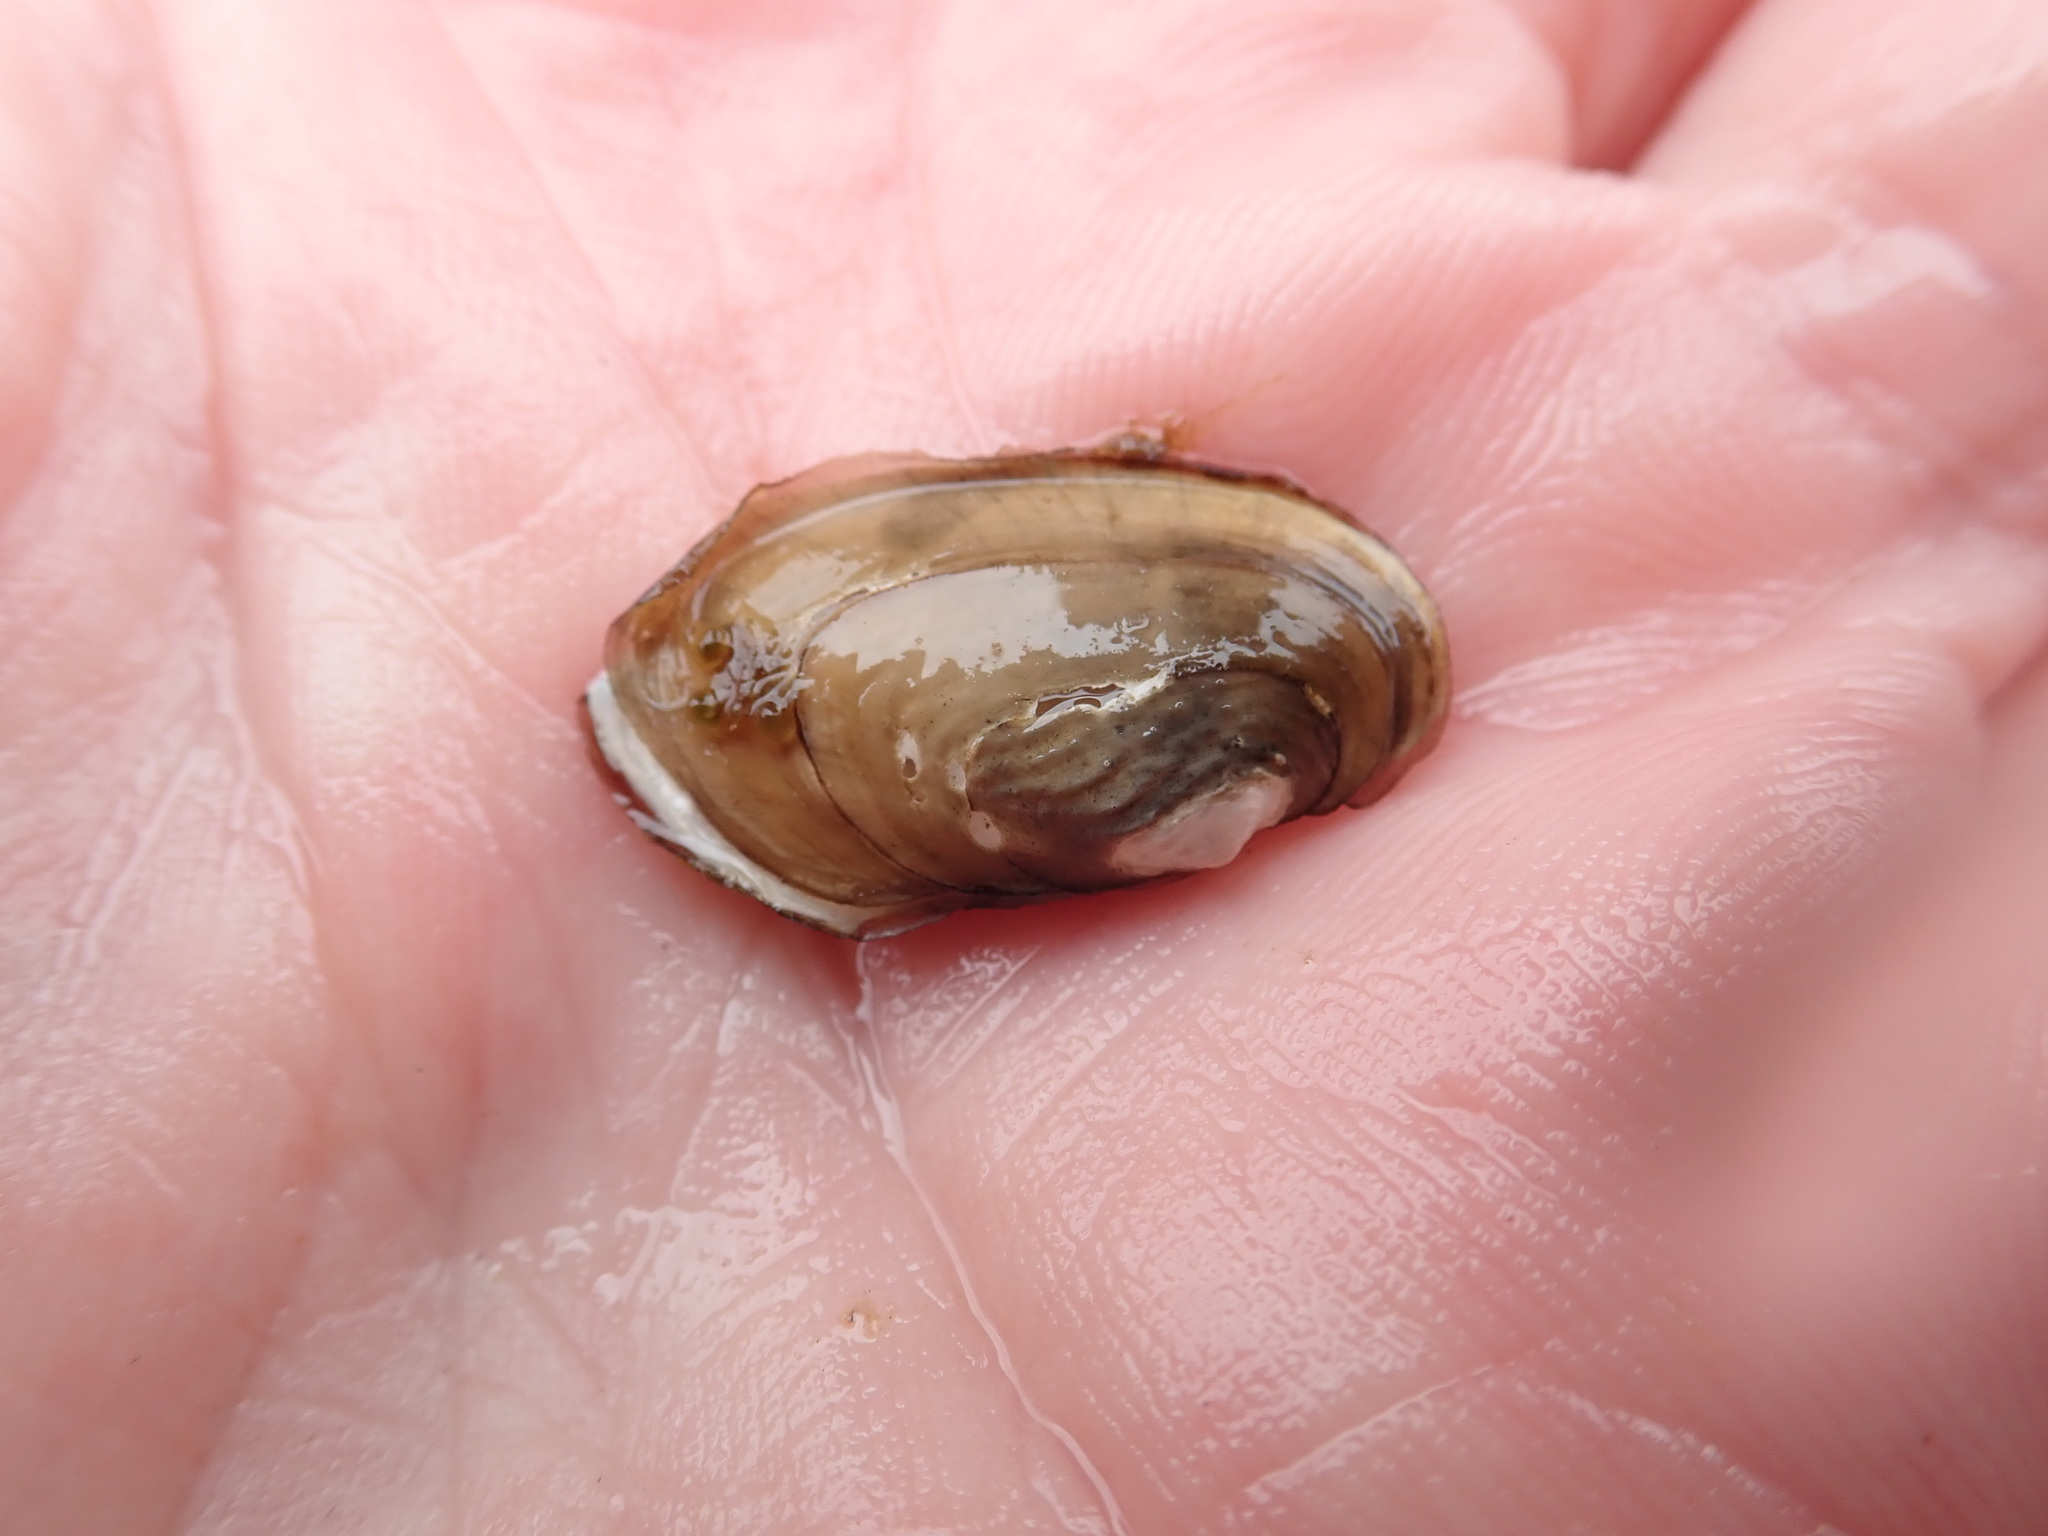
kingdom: Animalia
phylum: Mollusca
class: Bivalvia
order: Unionida
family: Unionidae
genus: Lampsilis
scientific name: Lampsilis siliquoidea
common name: Fatmucket
